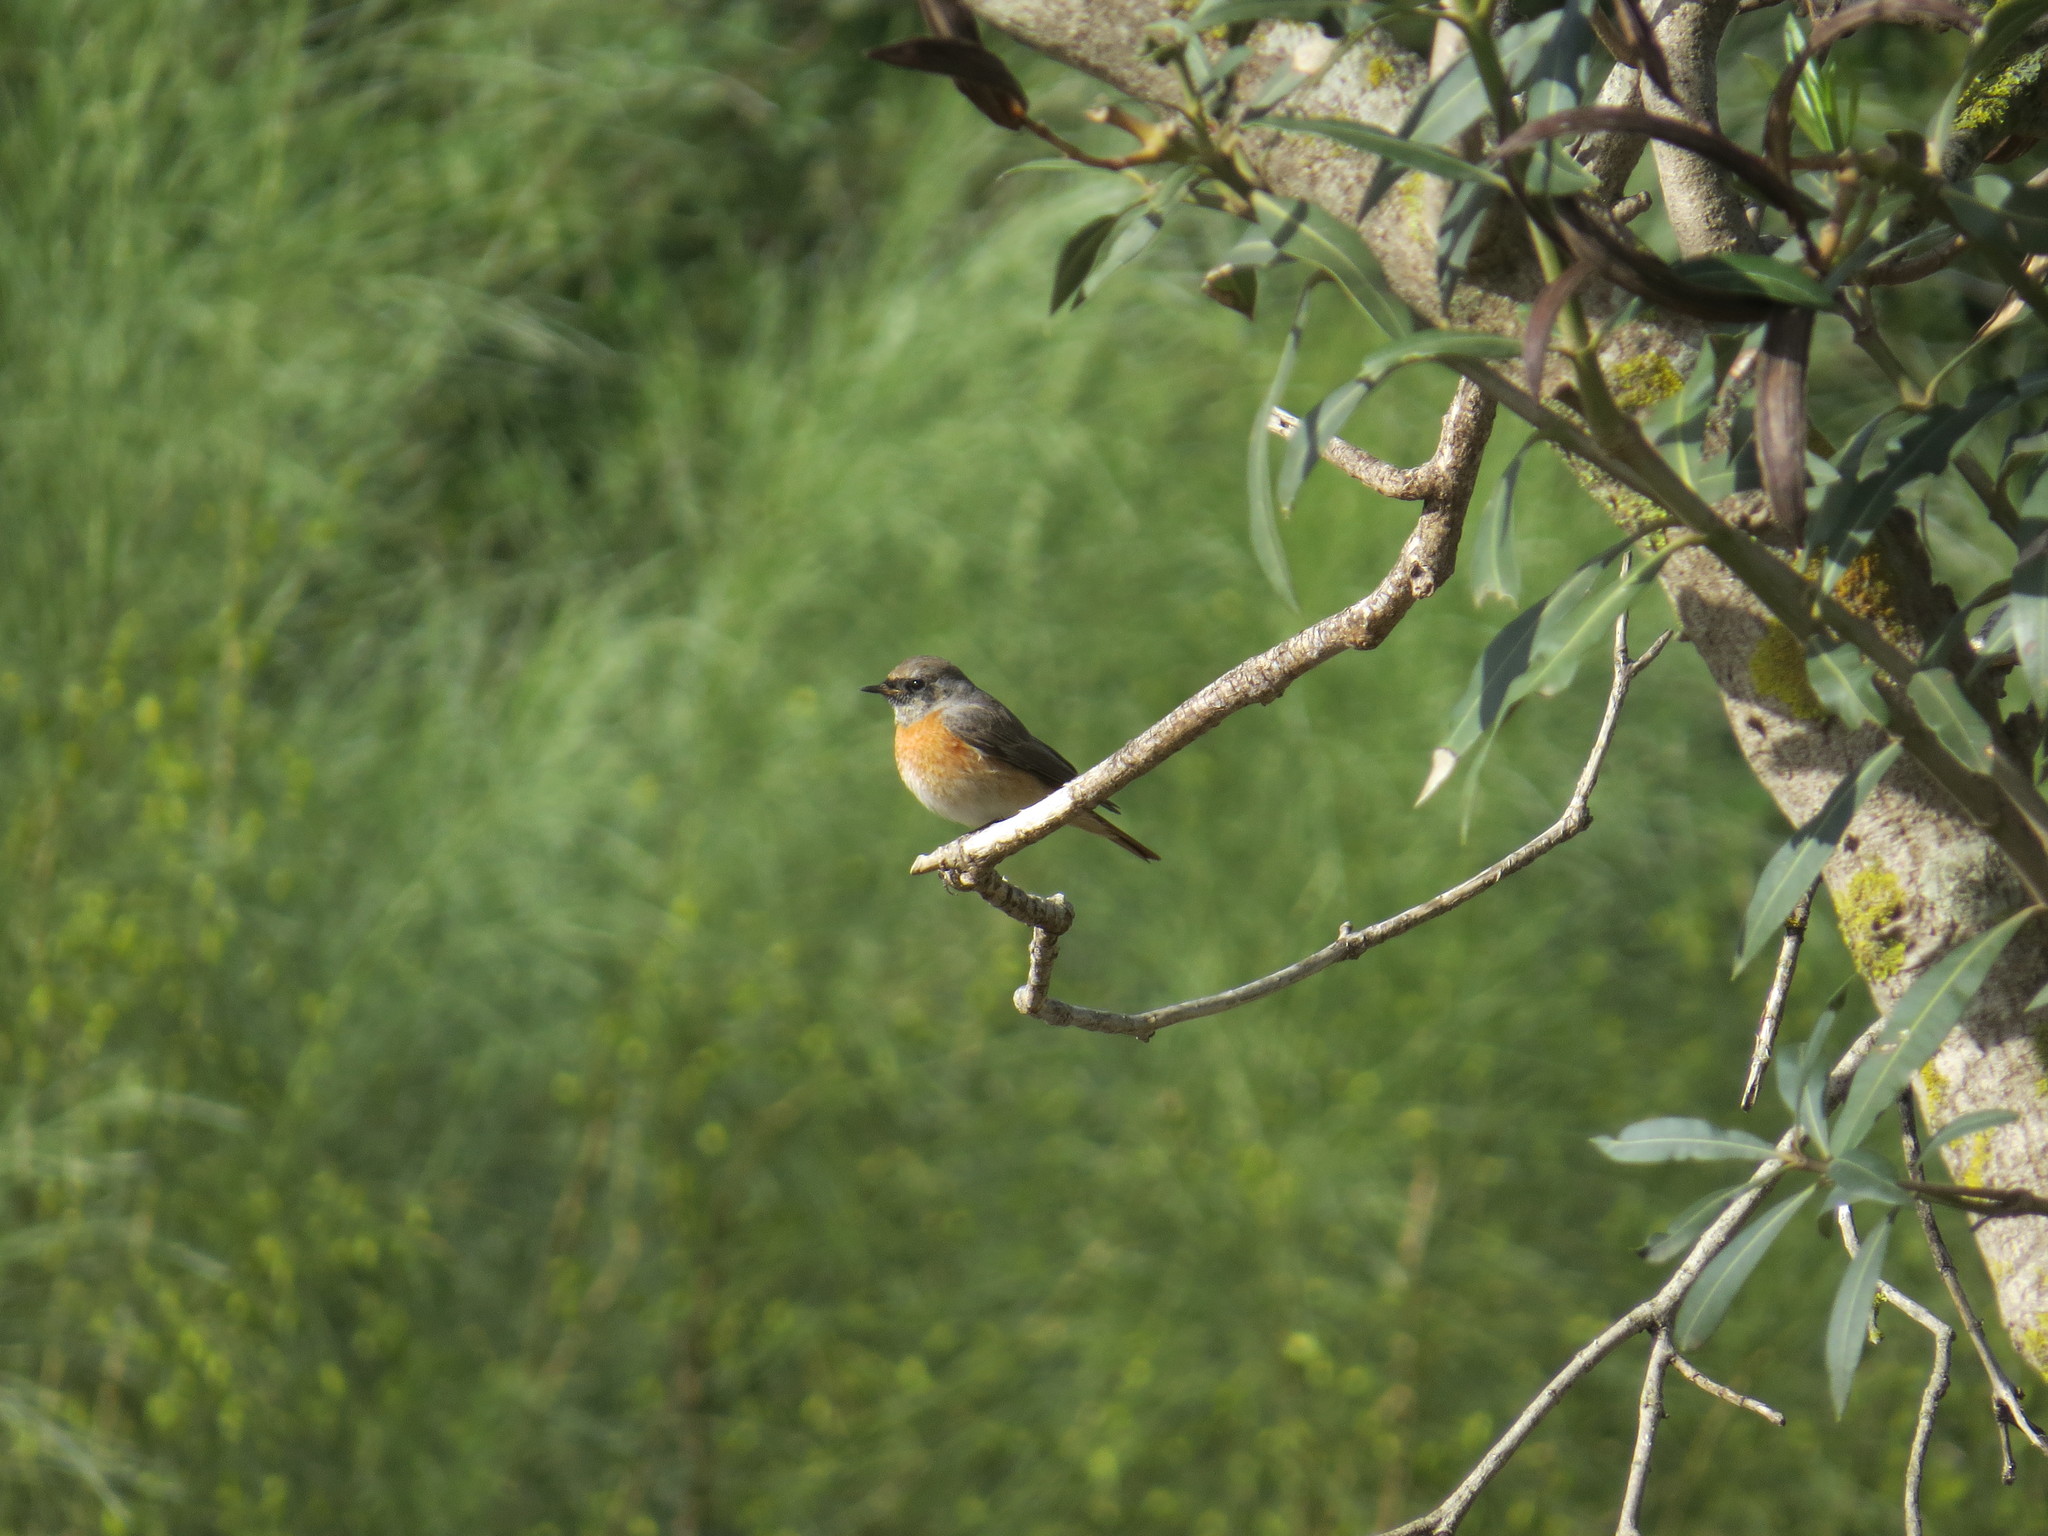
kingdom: Animalia
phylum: Chordata
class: Aves
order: Passeriformes
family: Muscicapidae
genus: Phoenicurus
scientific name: Phoenicurus phoenicurus
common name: Common redstart
